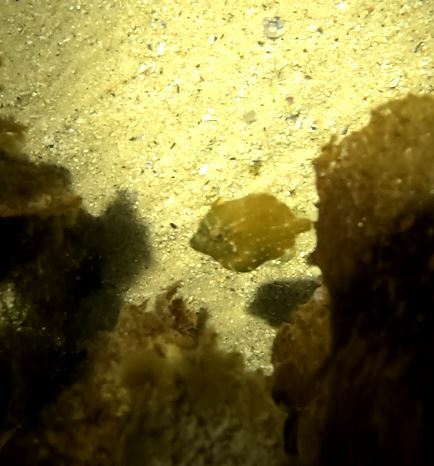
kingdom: Animalia
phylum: Chordata
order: Tetraodontiformes
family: Monacanthidae
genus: Brachaluteres
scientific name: Brachaluteres jacksonianus
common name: Pigmy leatherjacket
